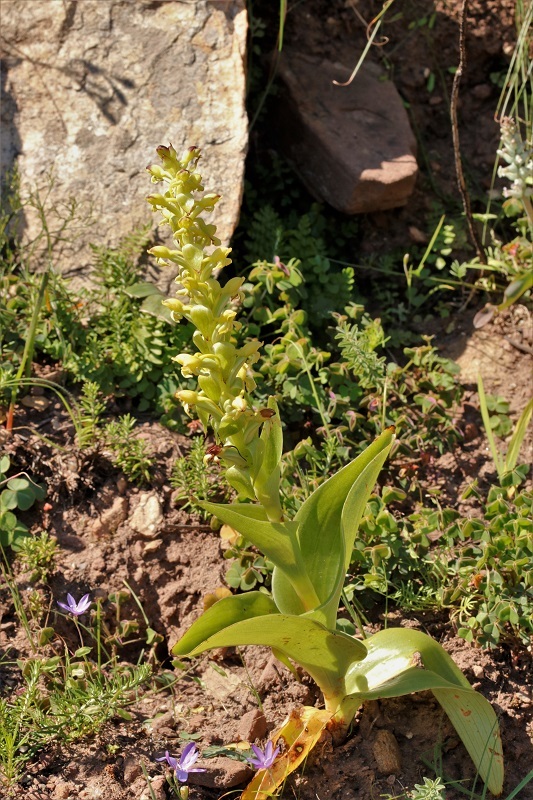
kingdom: Plantae
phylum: Tracheophyta
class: Liliopsida
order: Asparagales
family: Orchidaceae
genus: Satyrium
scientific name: Satyrium odorum
